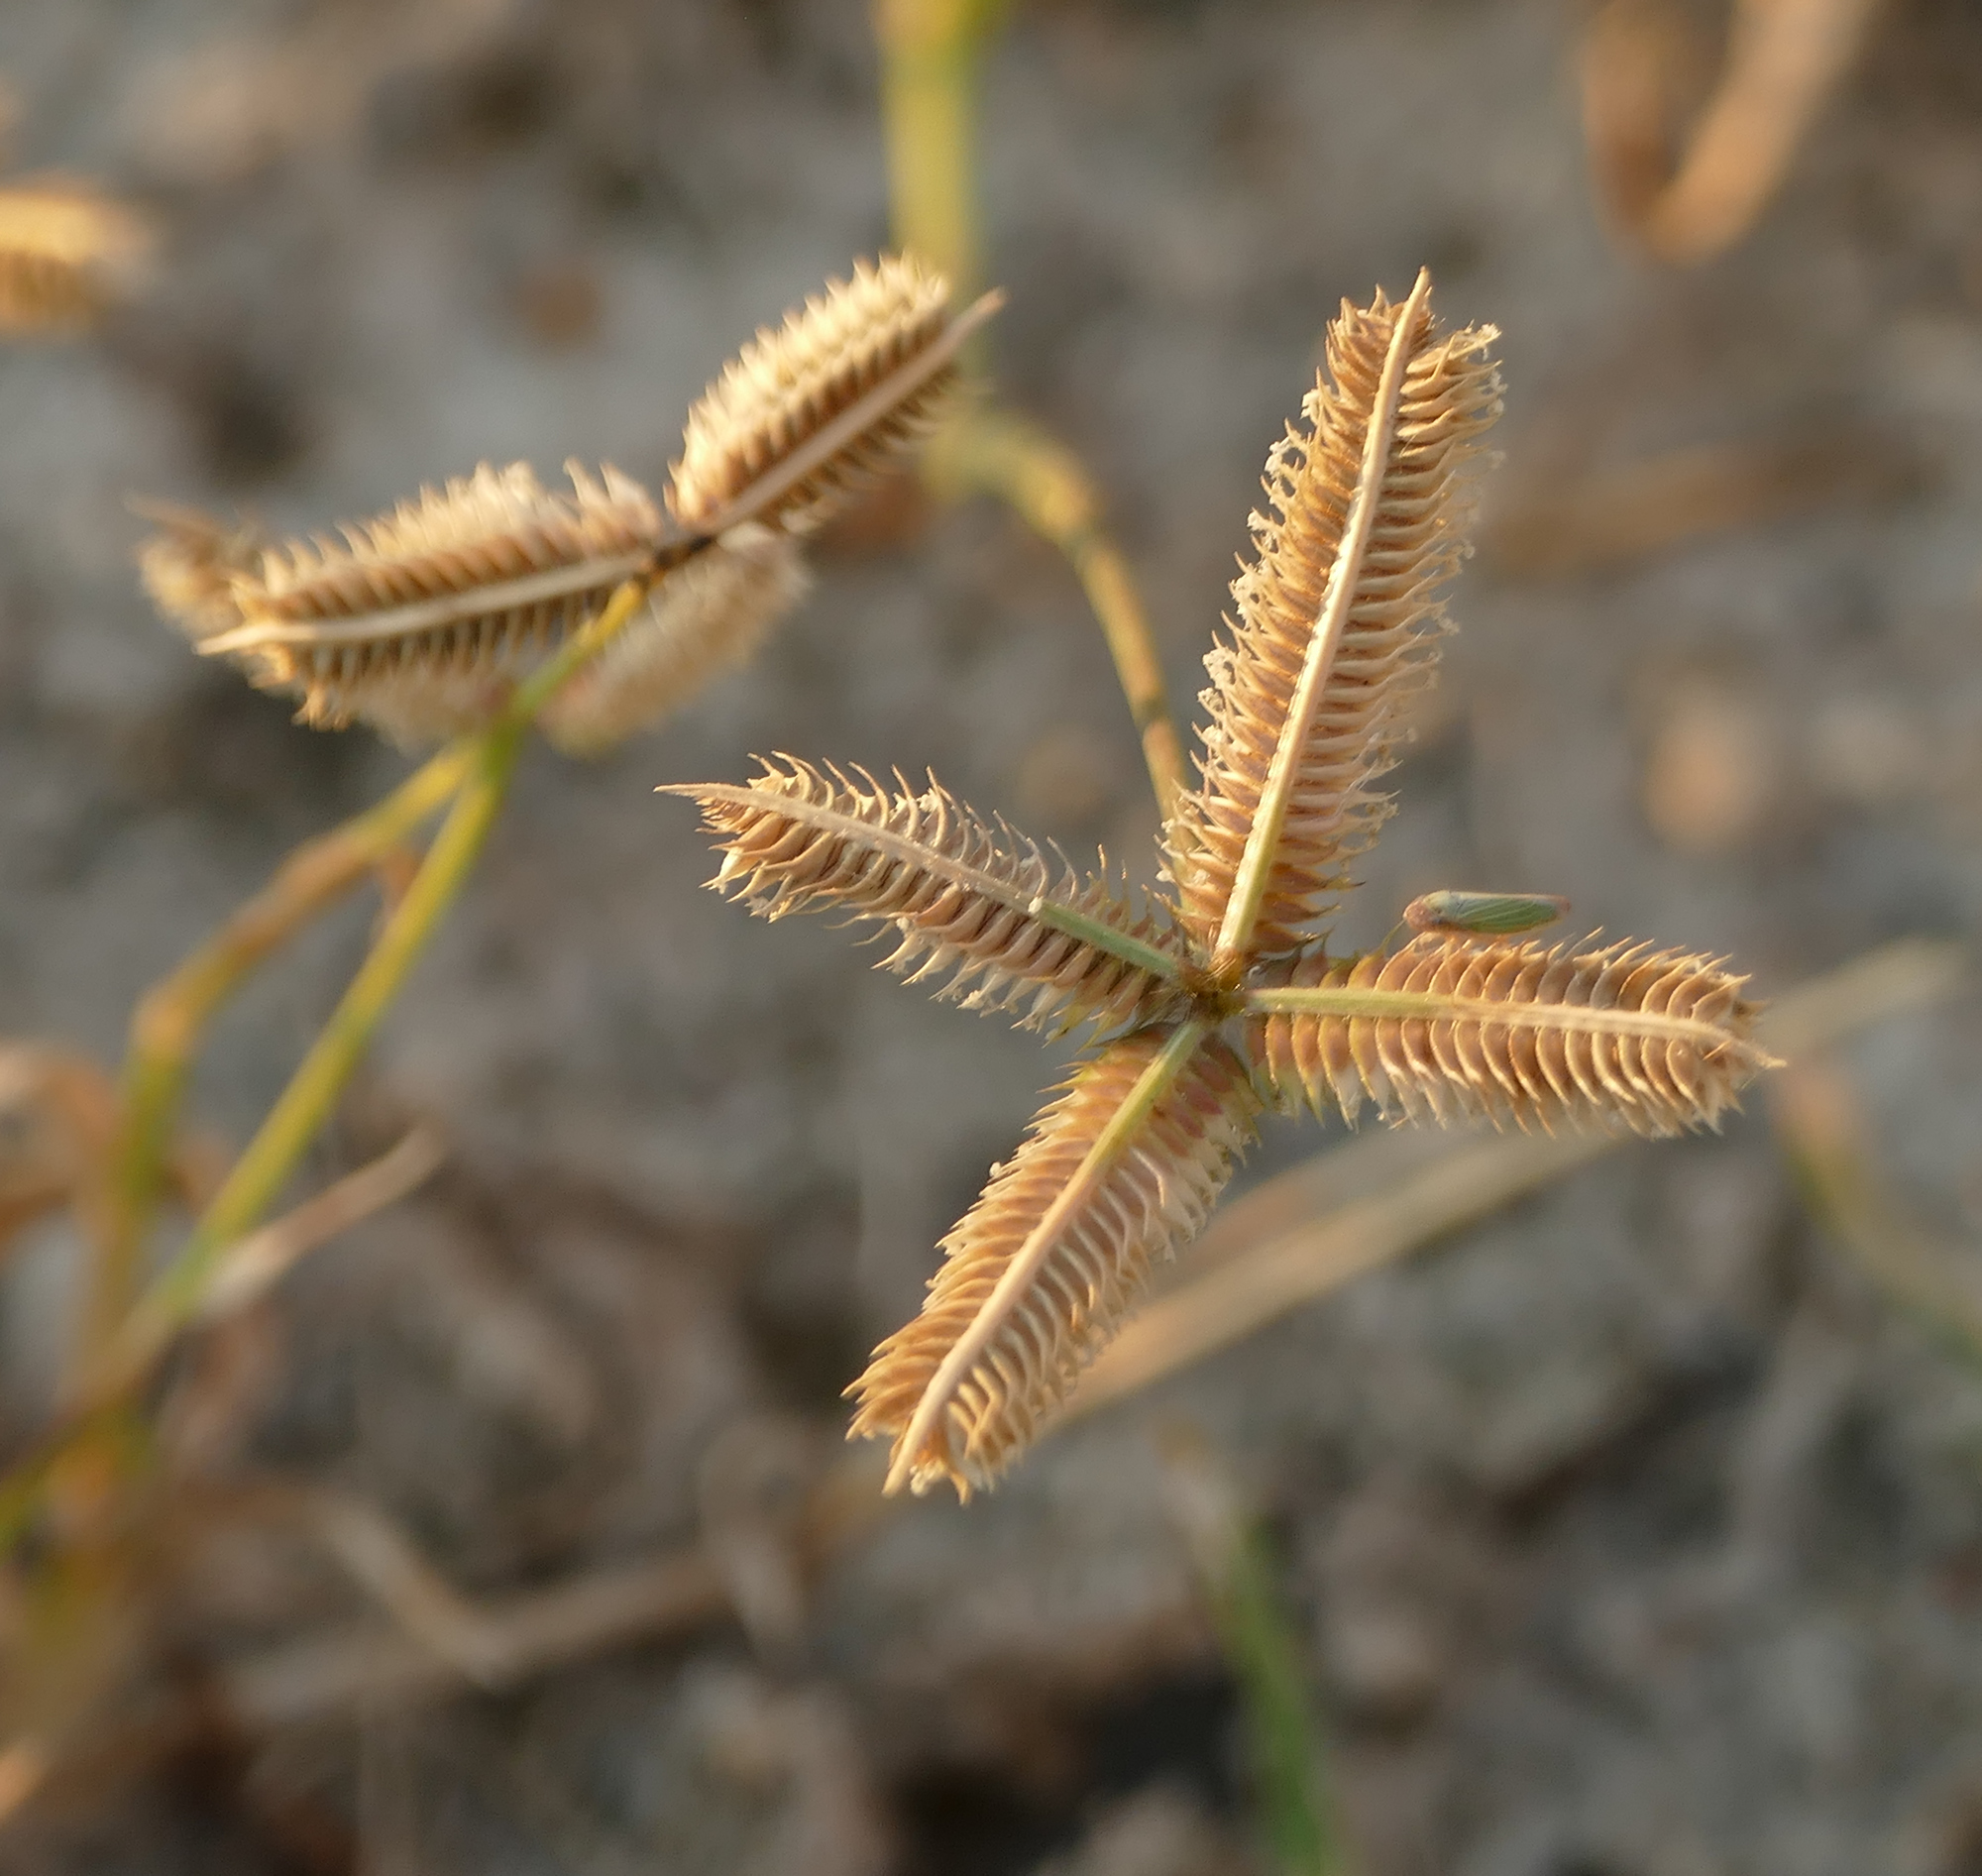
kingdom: Plantae
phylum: Tracheophyta
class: Liliopsida
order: Poales
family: Poaceae
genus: Dactyloctenium
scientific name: Dactyloctenium aegyptium
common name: Egyptian grass
